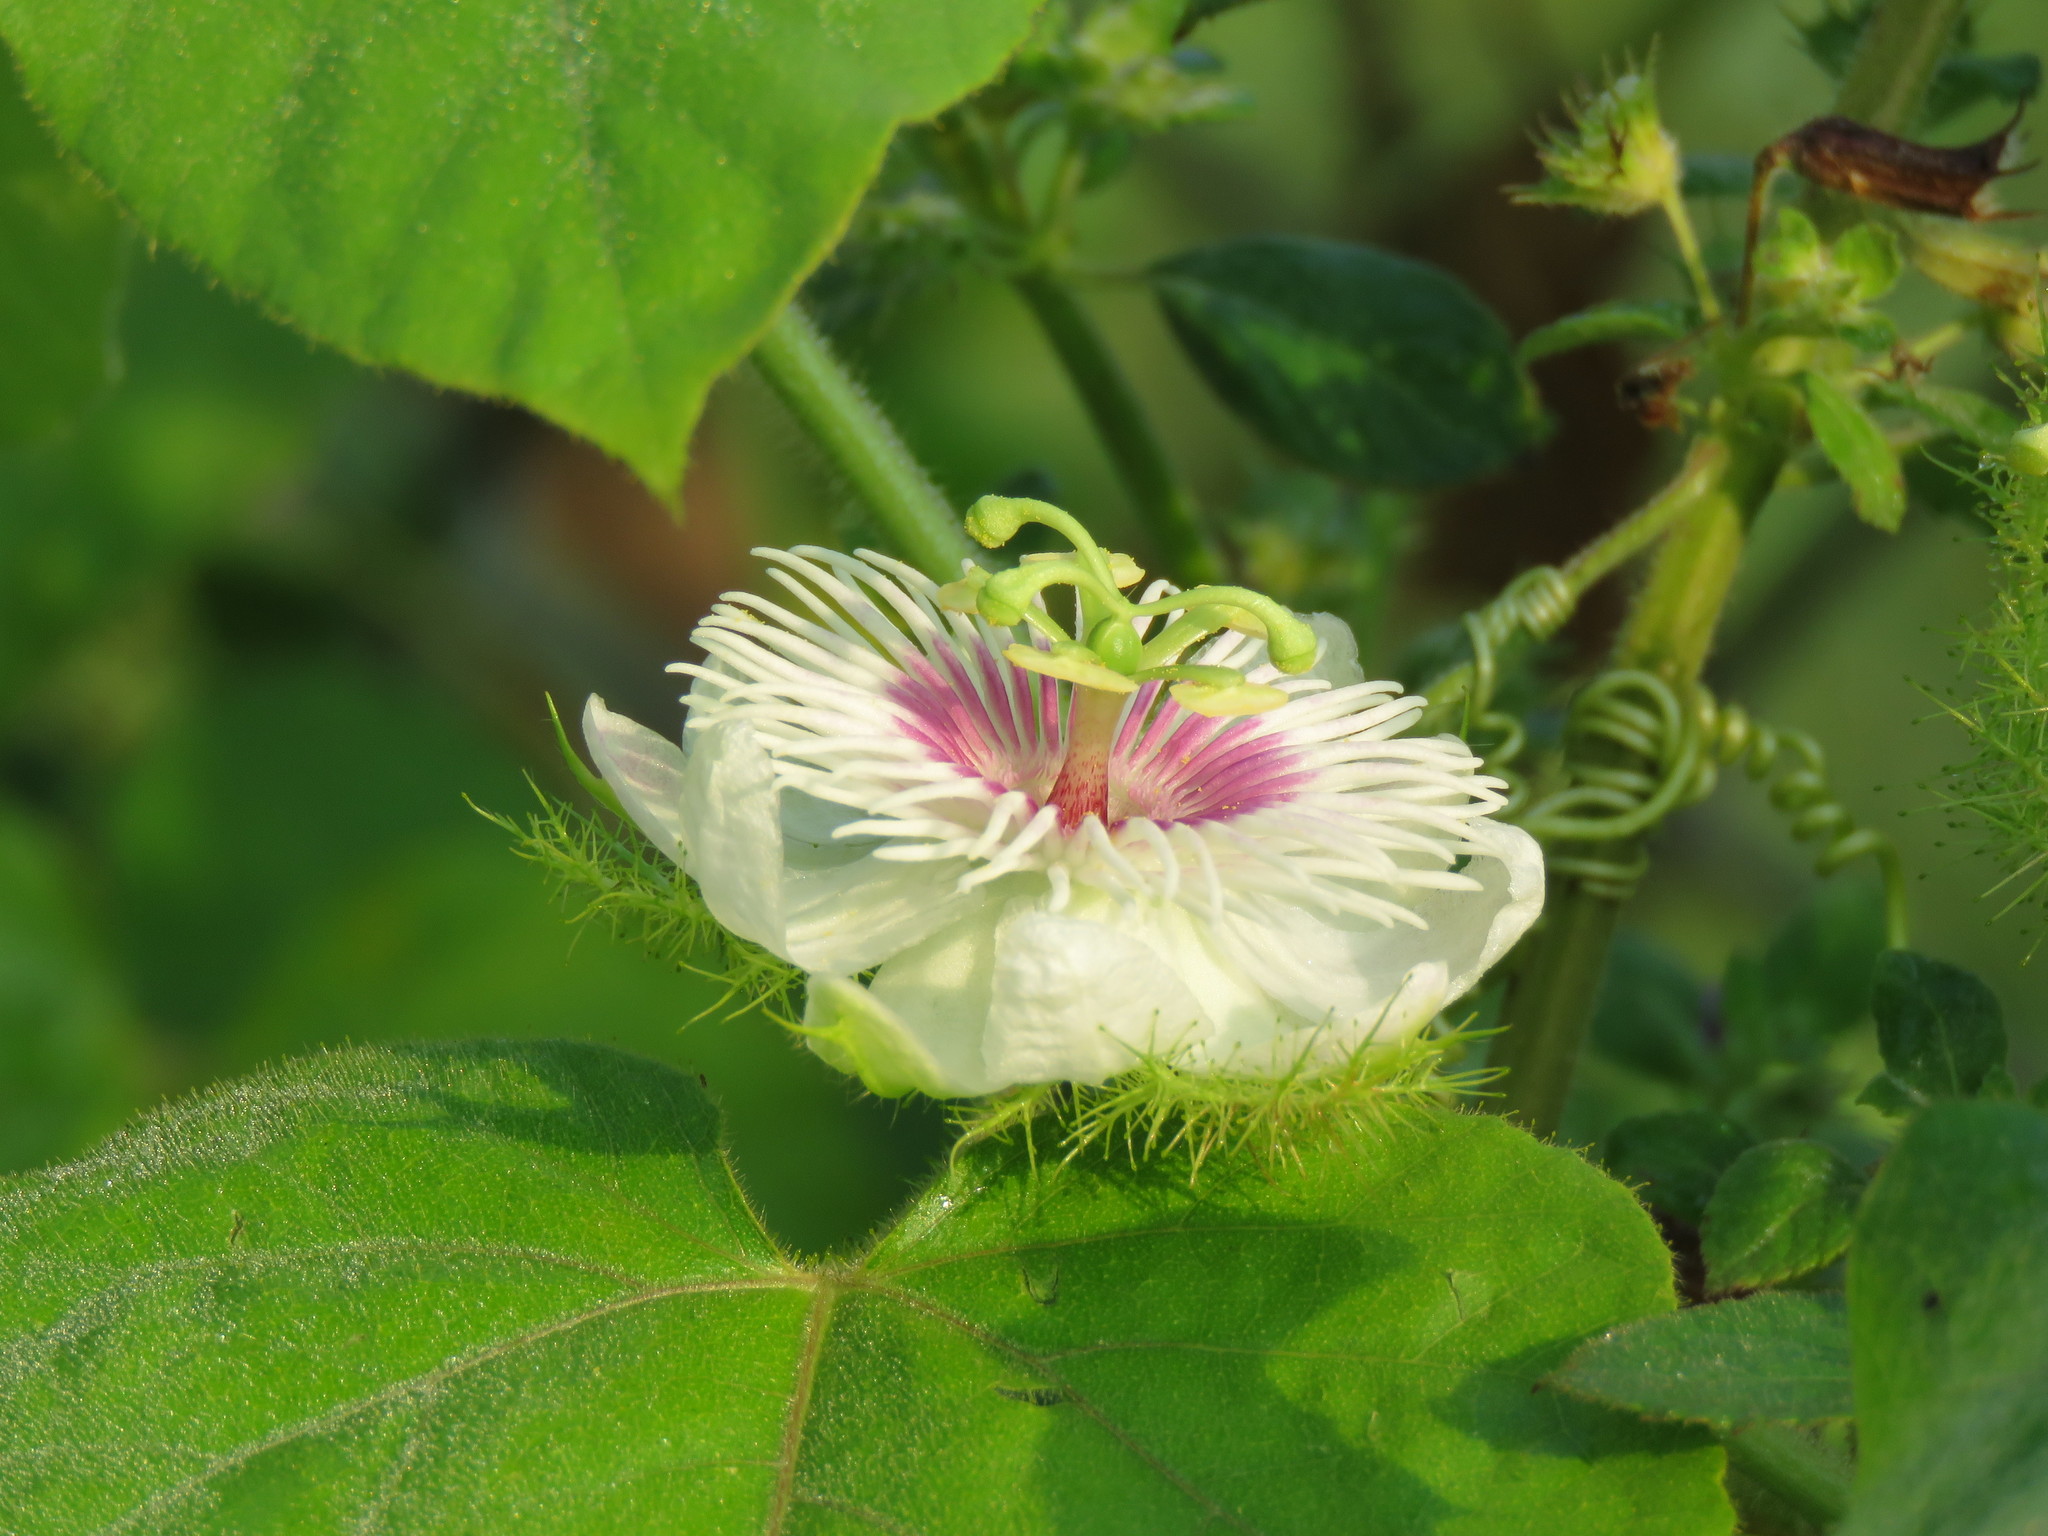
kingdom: Plantae
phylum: Tracheophyta
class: Magnoliopsida
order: Malpighiales
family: Passifloraceae
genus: Passiflora
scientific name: Passiflora foetida
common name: Fetid passionflower
